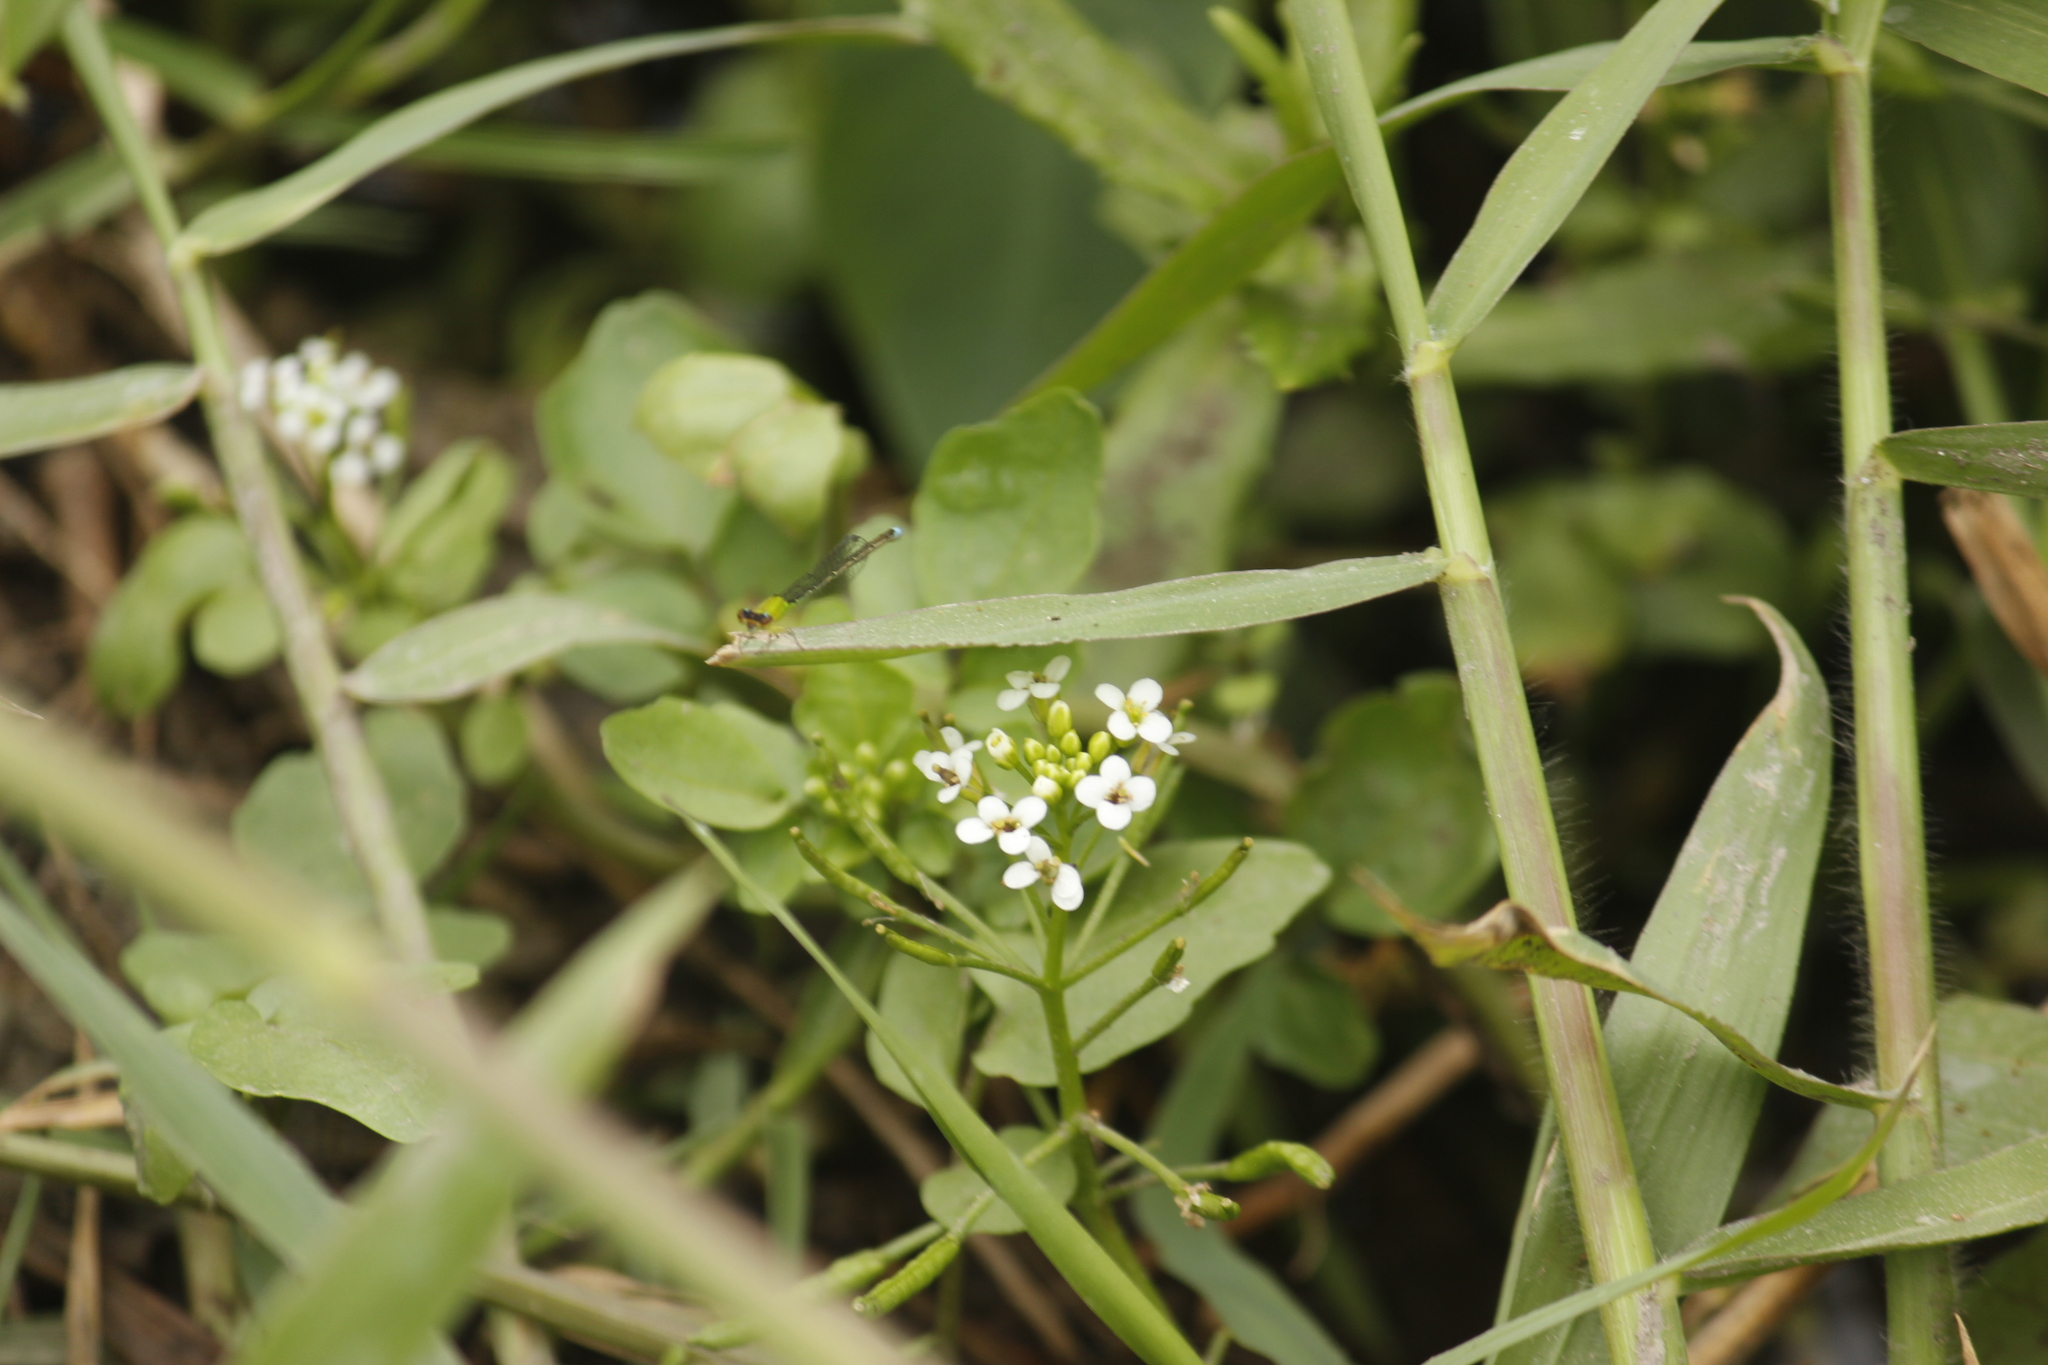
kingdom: Plantae
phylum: Tracheophyta
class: Magnoliopsida
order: Brassicales
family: Brassicaceae
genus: Nasturtium
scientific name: Nasturtium officinale
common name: Watercress
